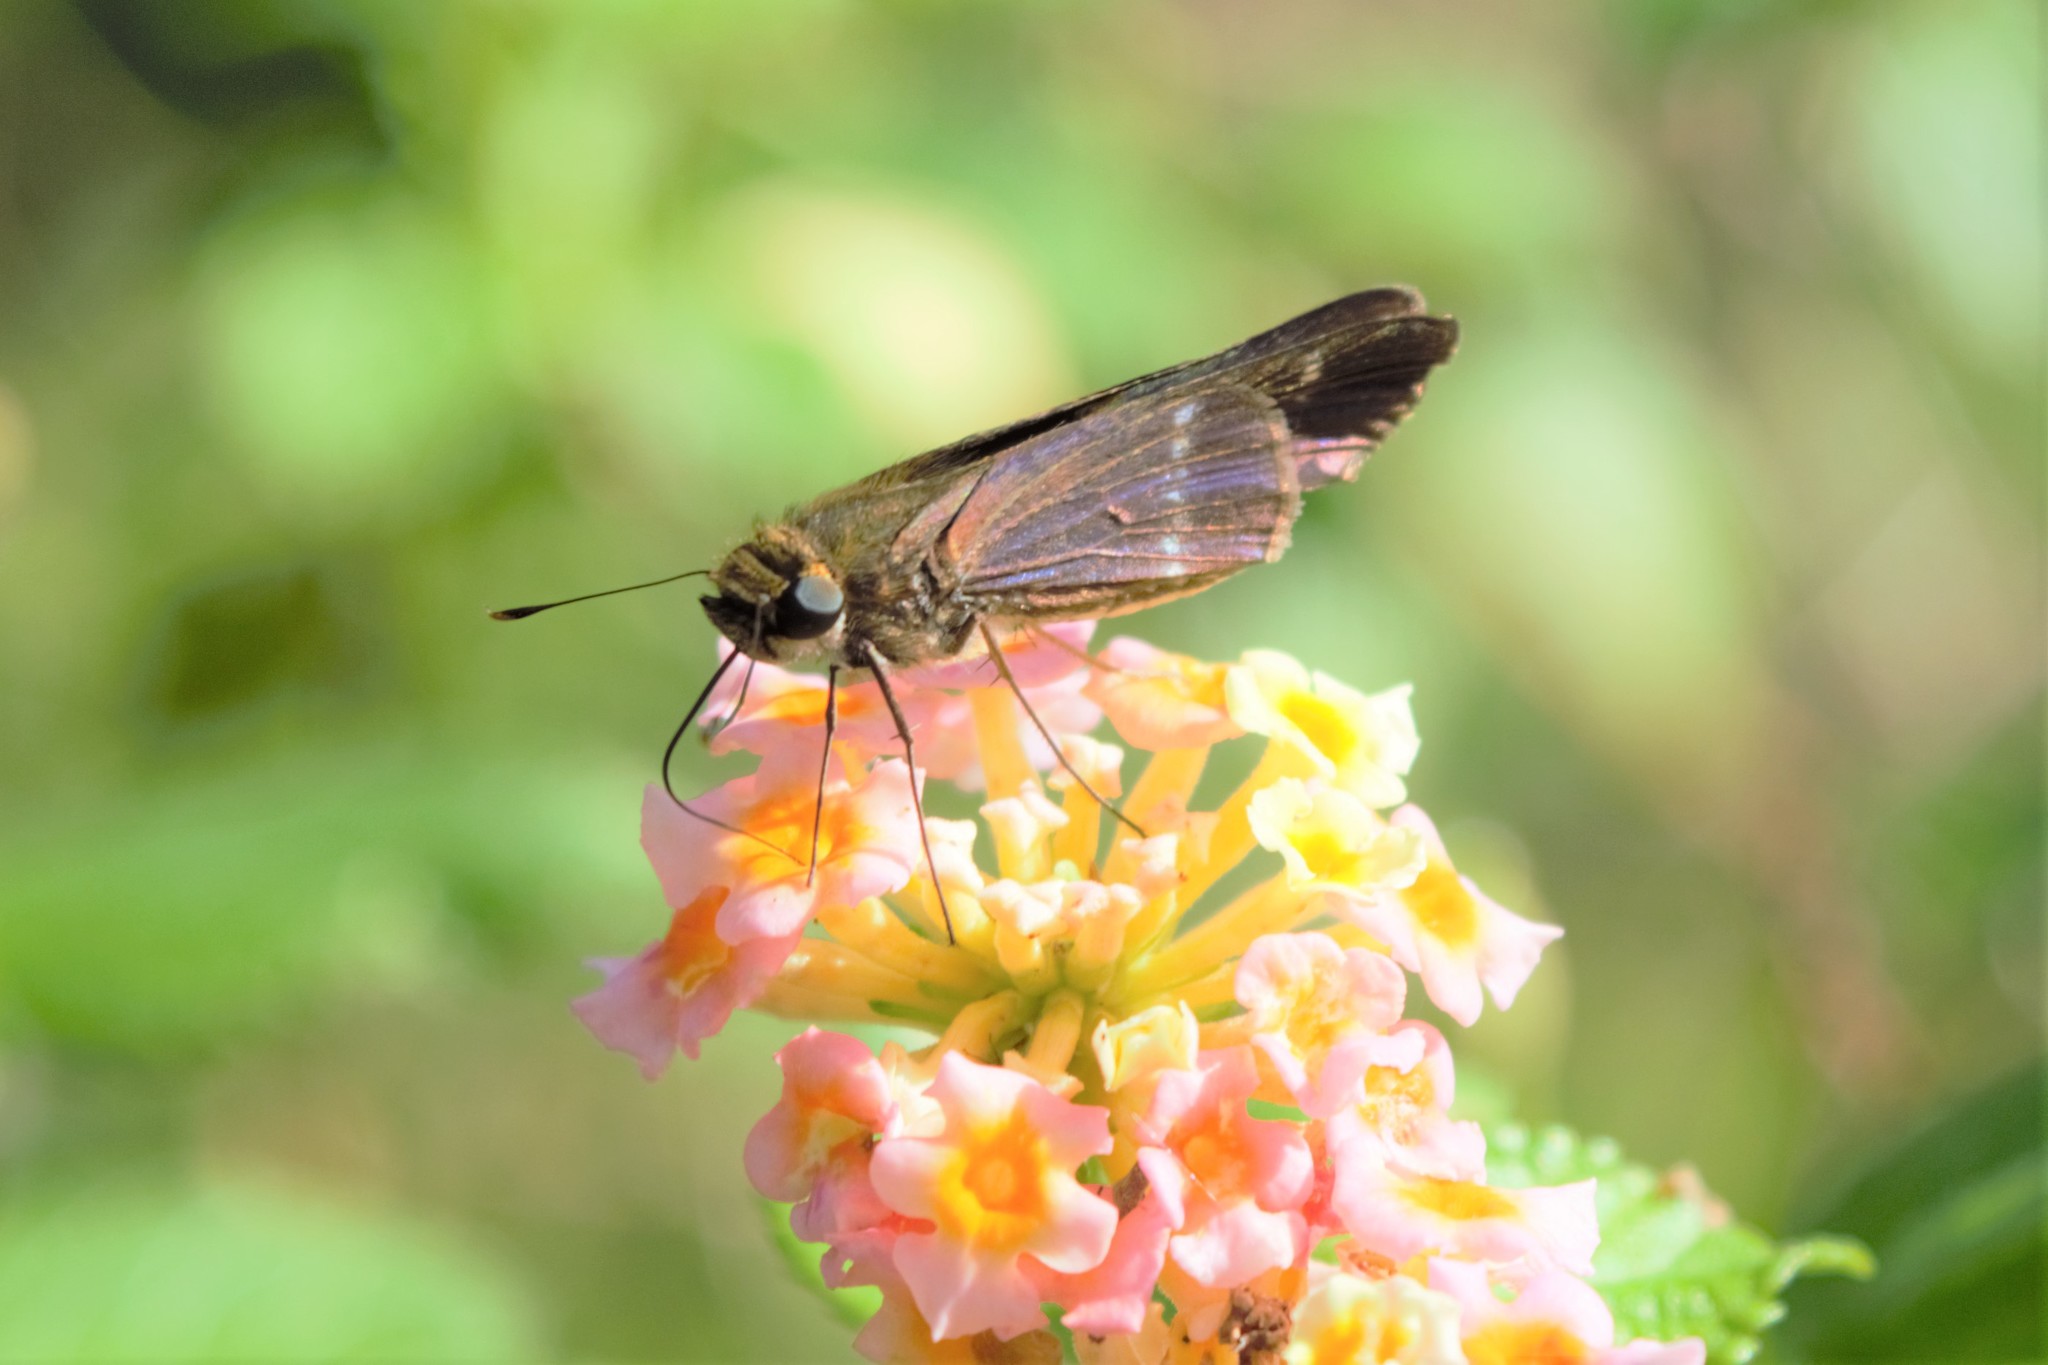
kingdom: Animalia
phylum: Arthropoda
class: Insecta
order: Lepidoptera
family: Hesperiidae
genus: Turesis
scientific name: Turesis lucas
